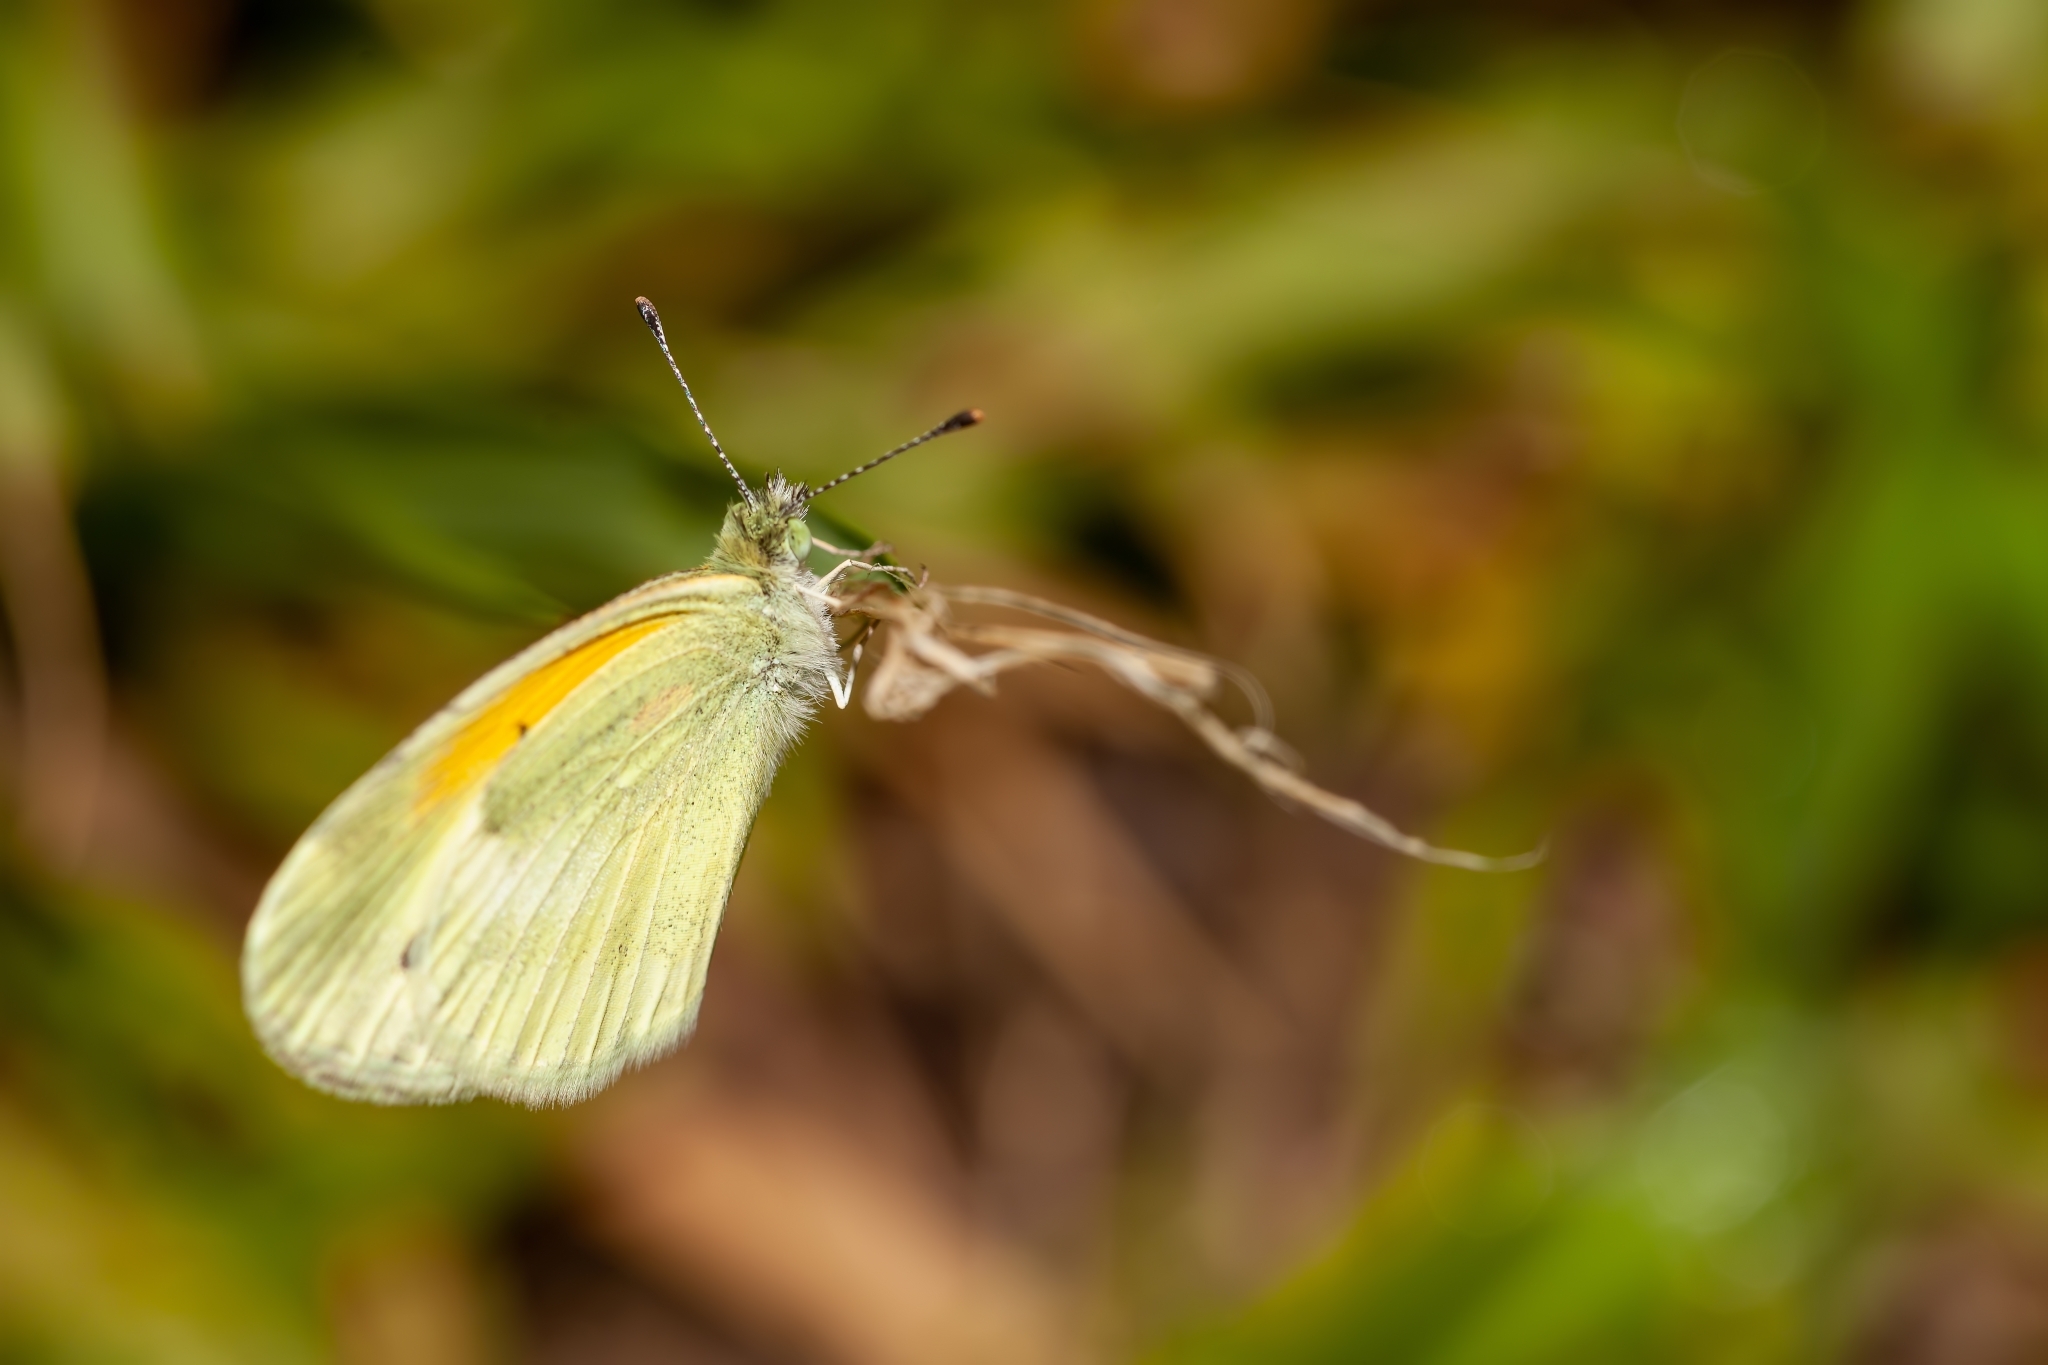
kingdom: Animalia
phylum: Arthropoda
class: Insecta
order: Lepidoptera
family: Pieridae
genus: Nathalis
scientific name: Nathalis iole
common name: Dainty sulphur
